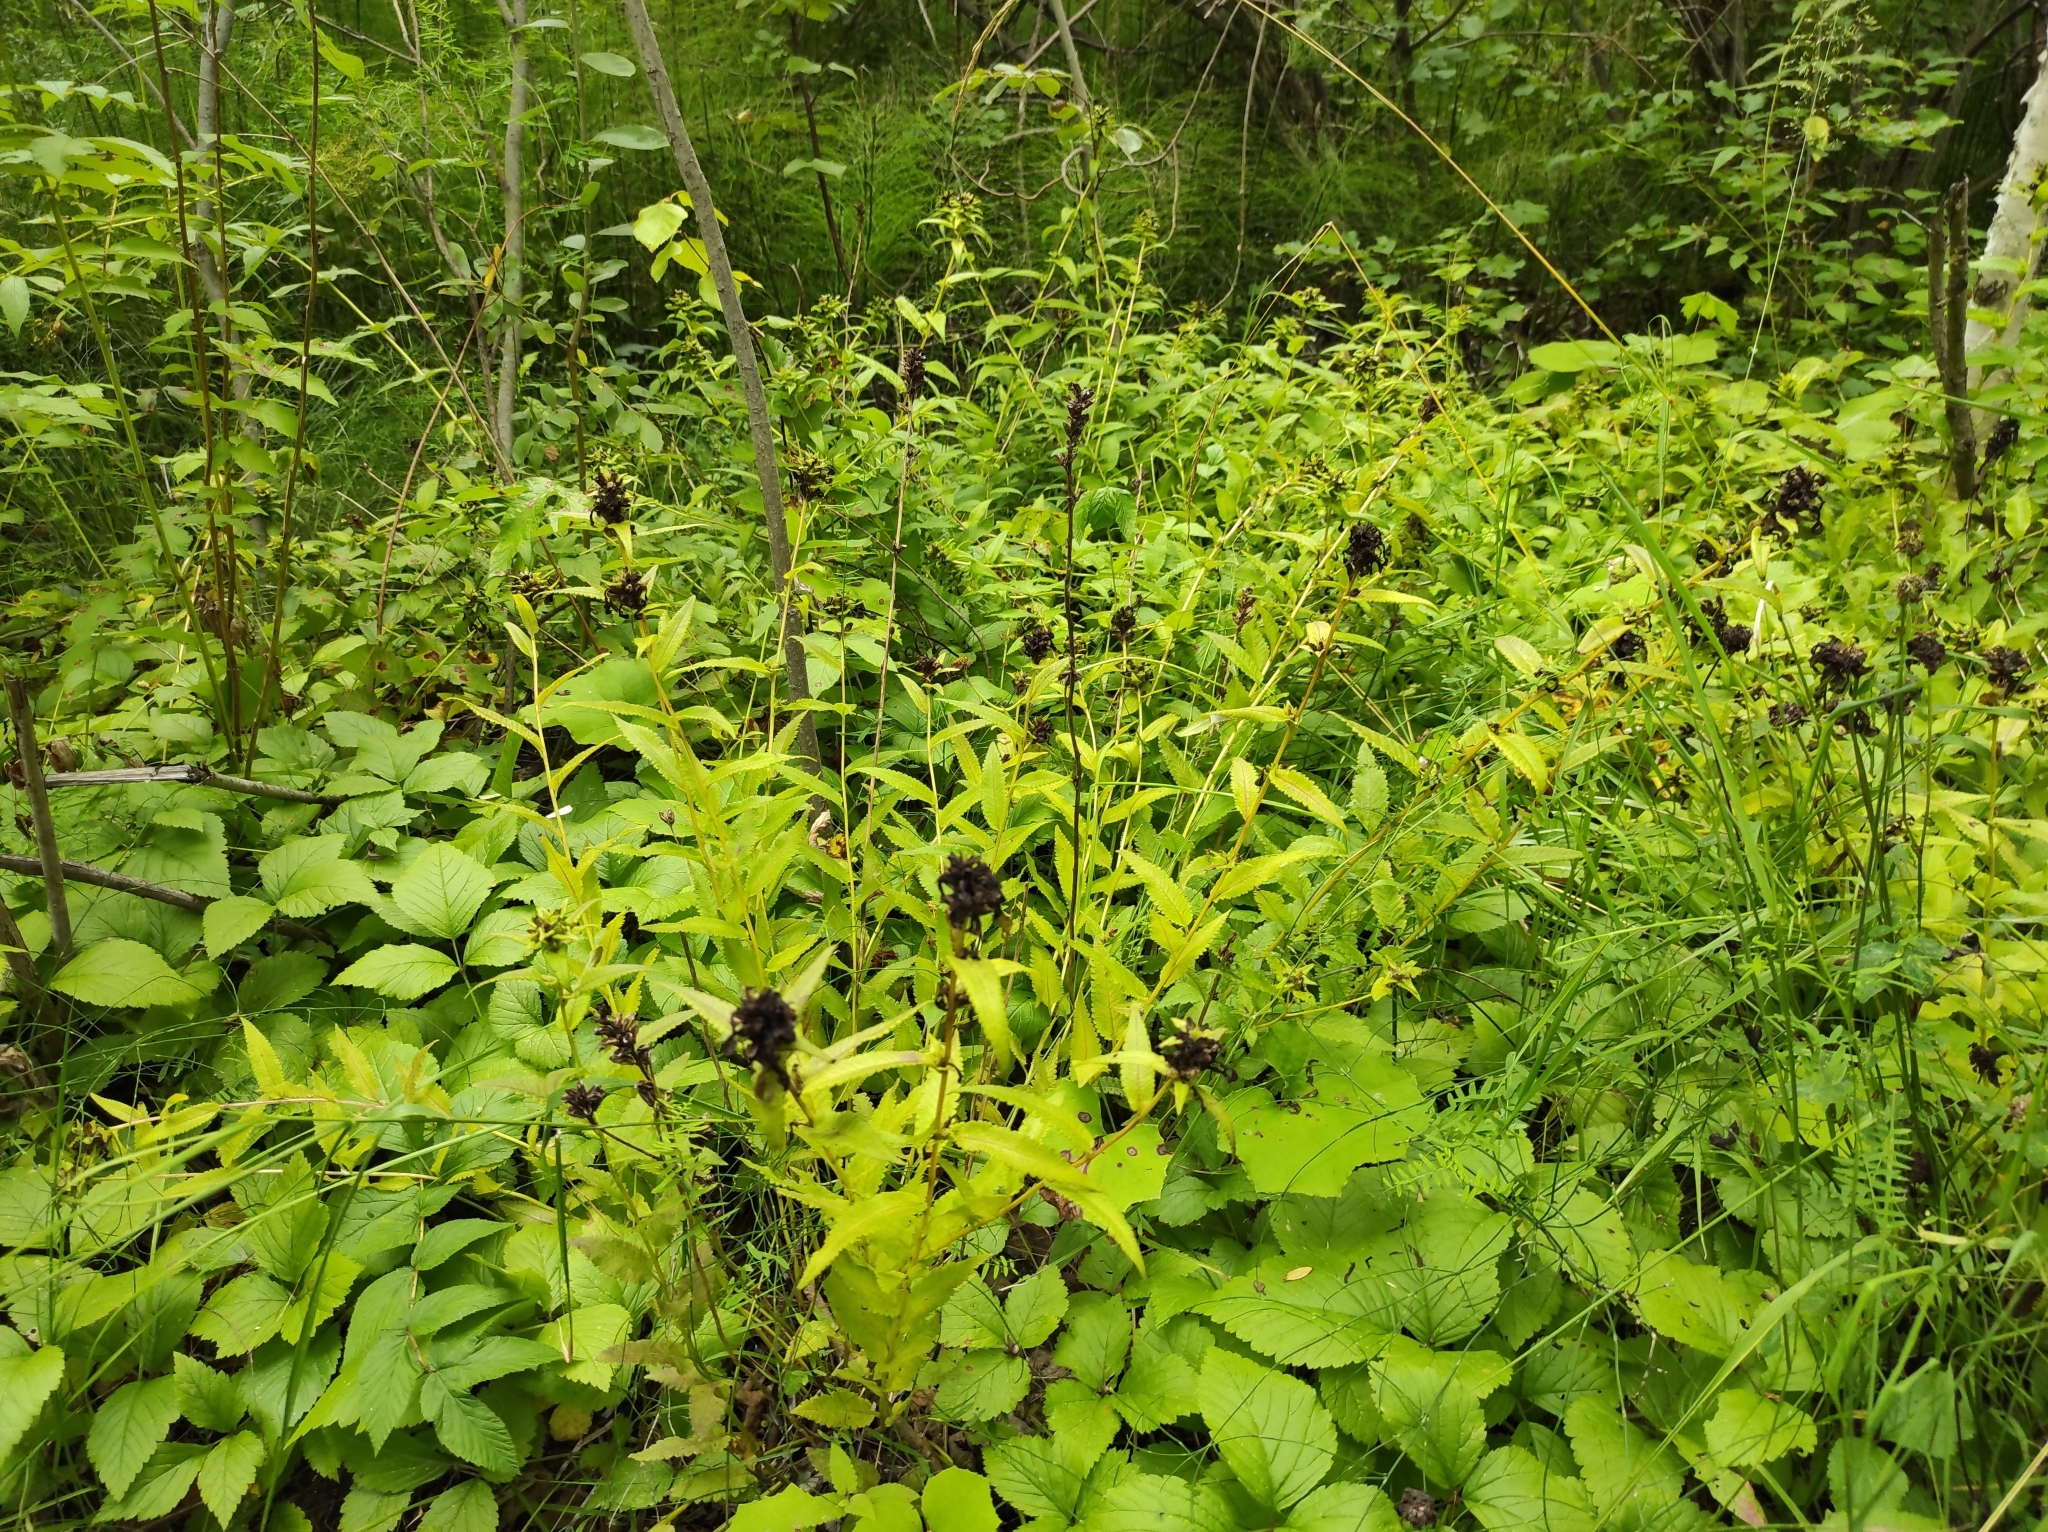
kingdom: Plantae
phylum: Tracheophyta
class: Magnoliopsida
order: Lamiales
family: Orobanchaceae
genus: Pedicularis
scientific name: Pedicularis resupinata
